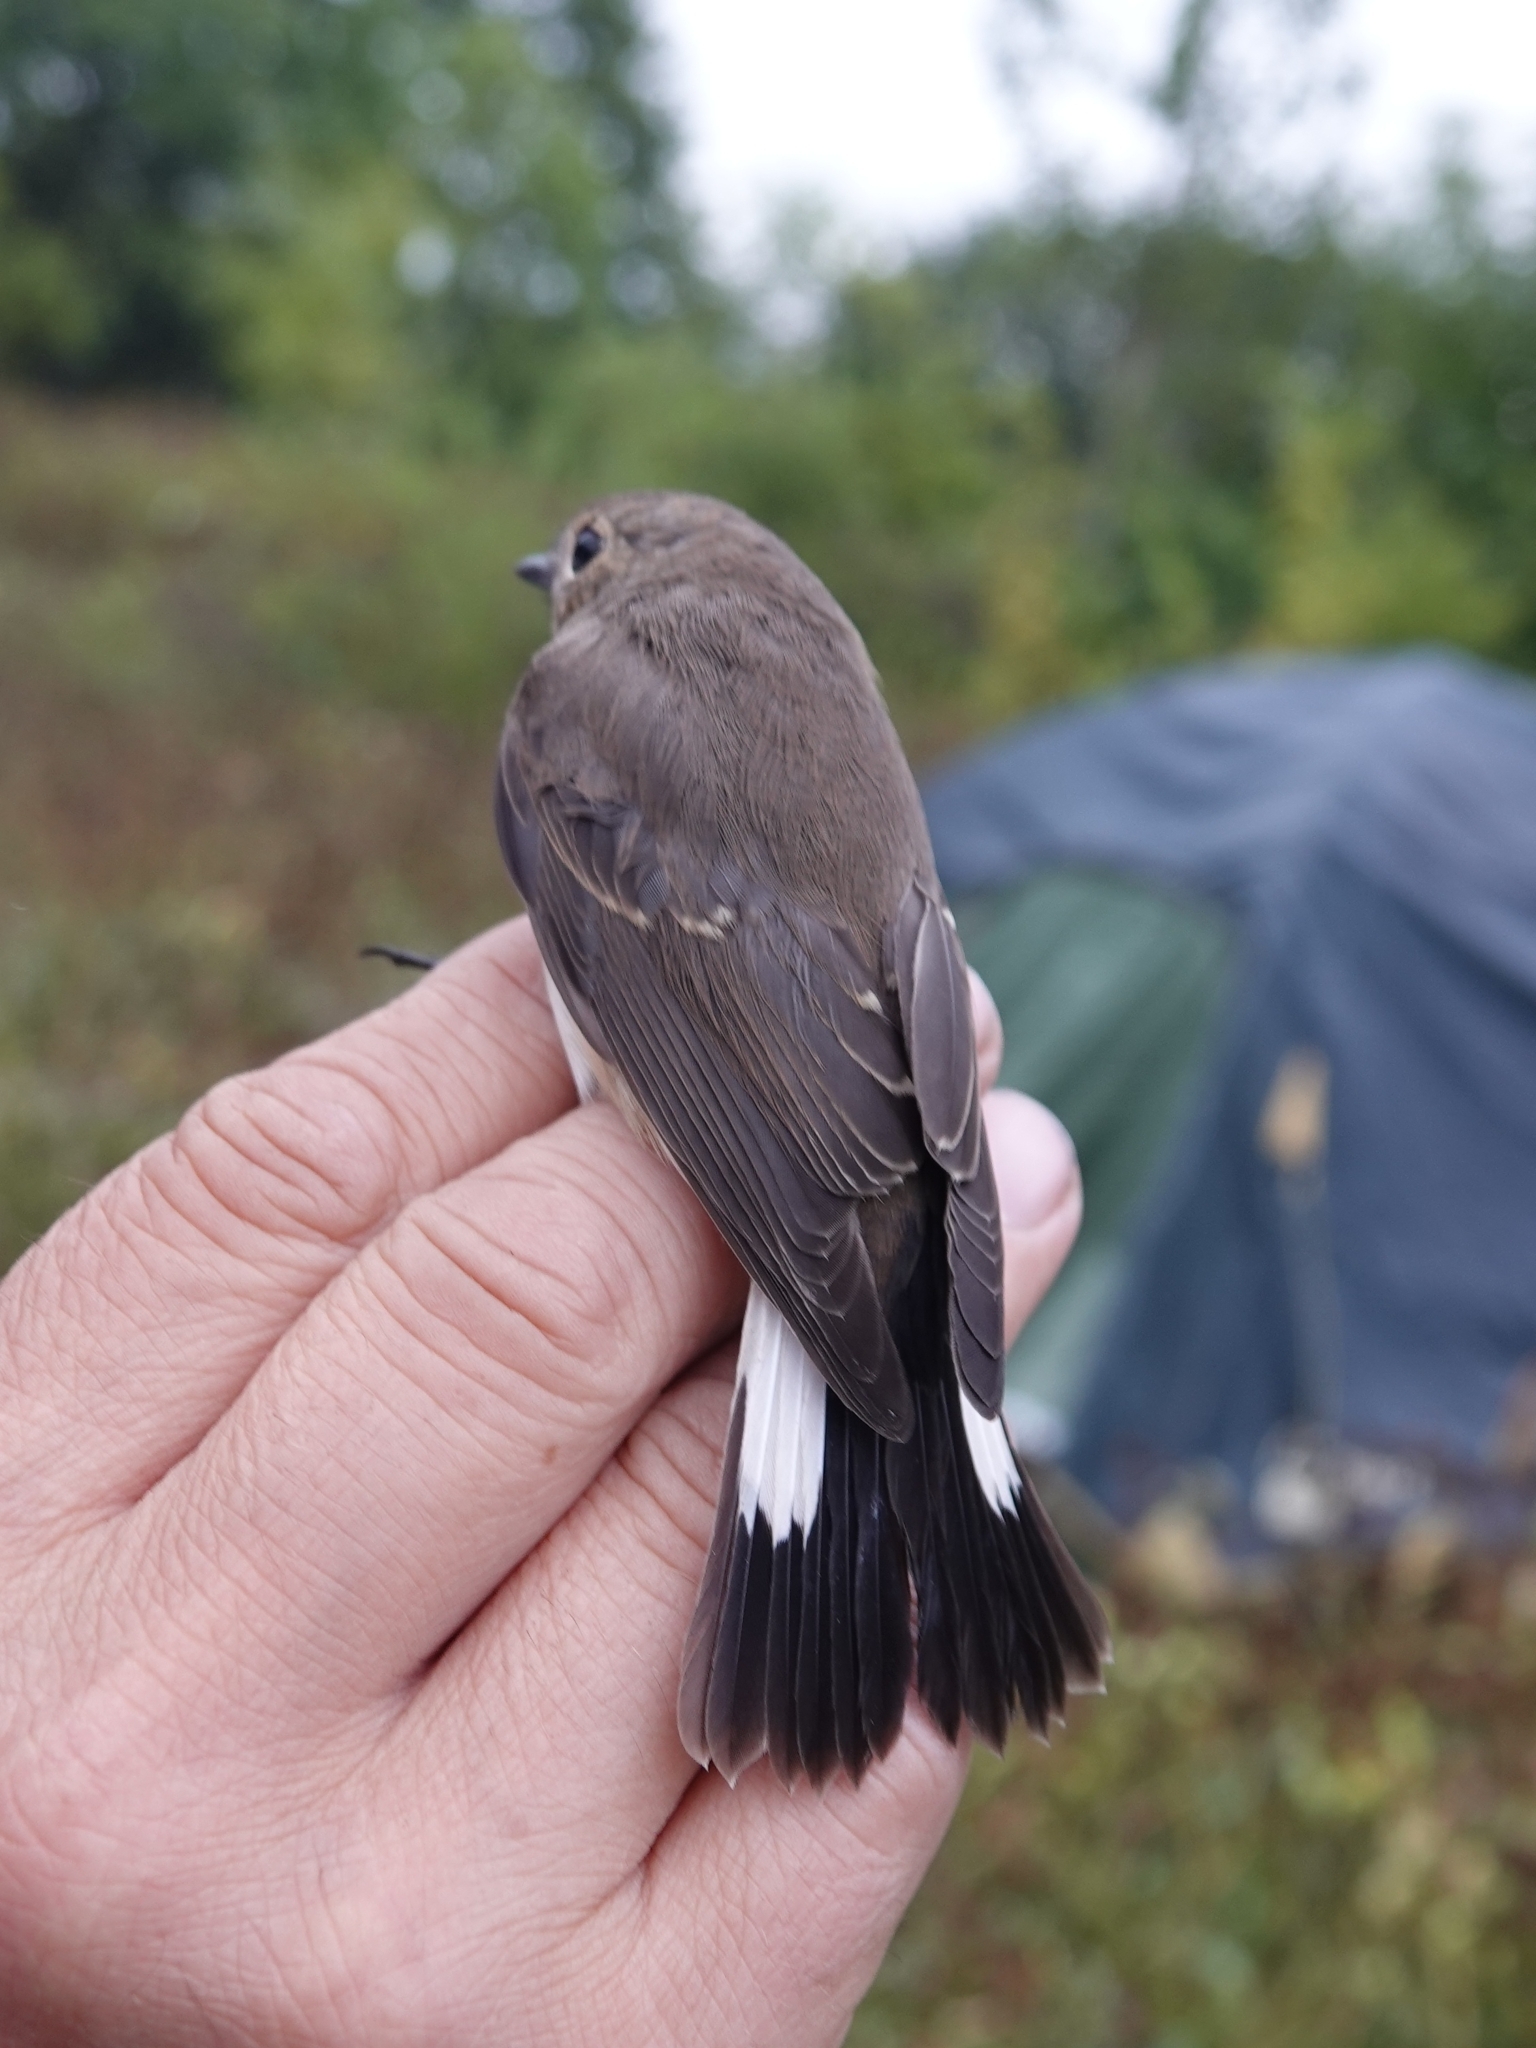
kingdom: Animalia
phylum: Chordata
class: Aves
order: Passeriformes
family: Muscicapidae
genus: Ficedula
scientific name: Ficedula albicilla
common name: Taiga flycatcher
